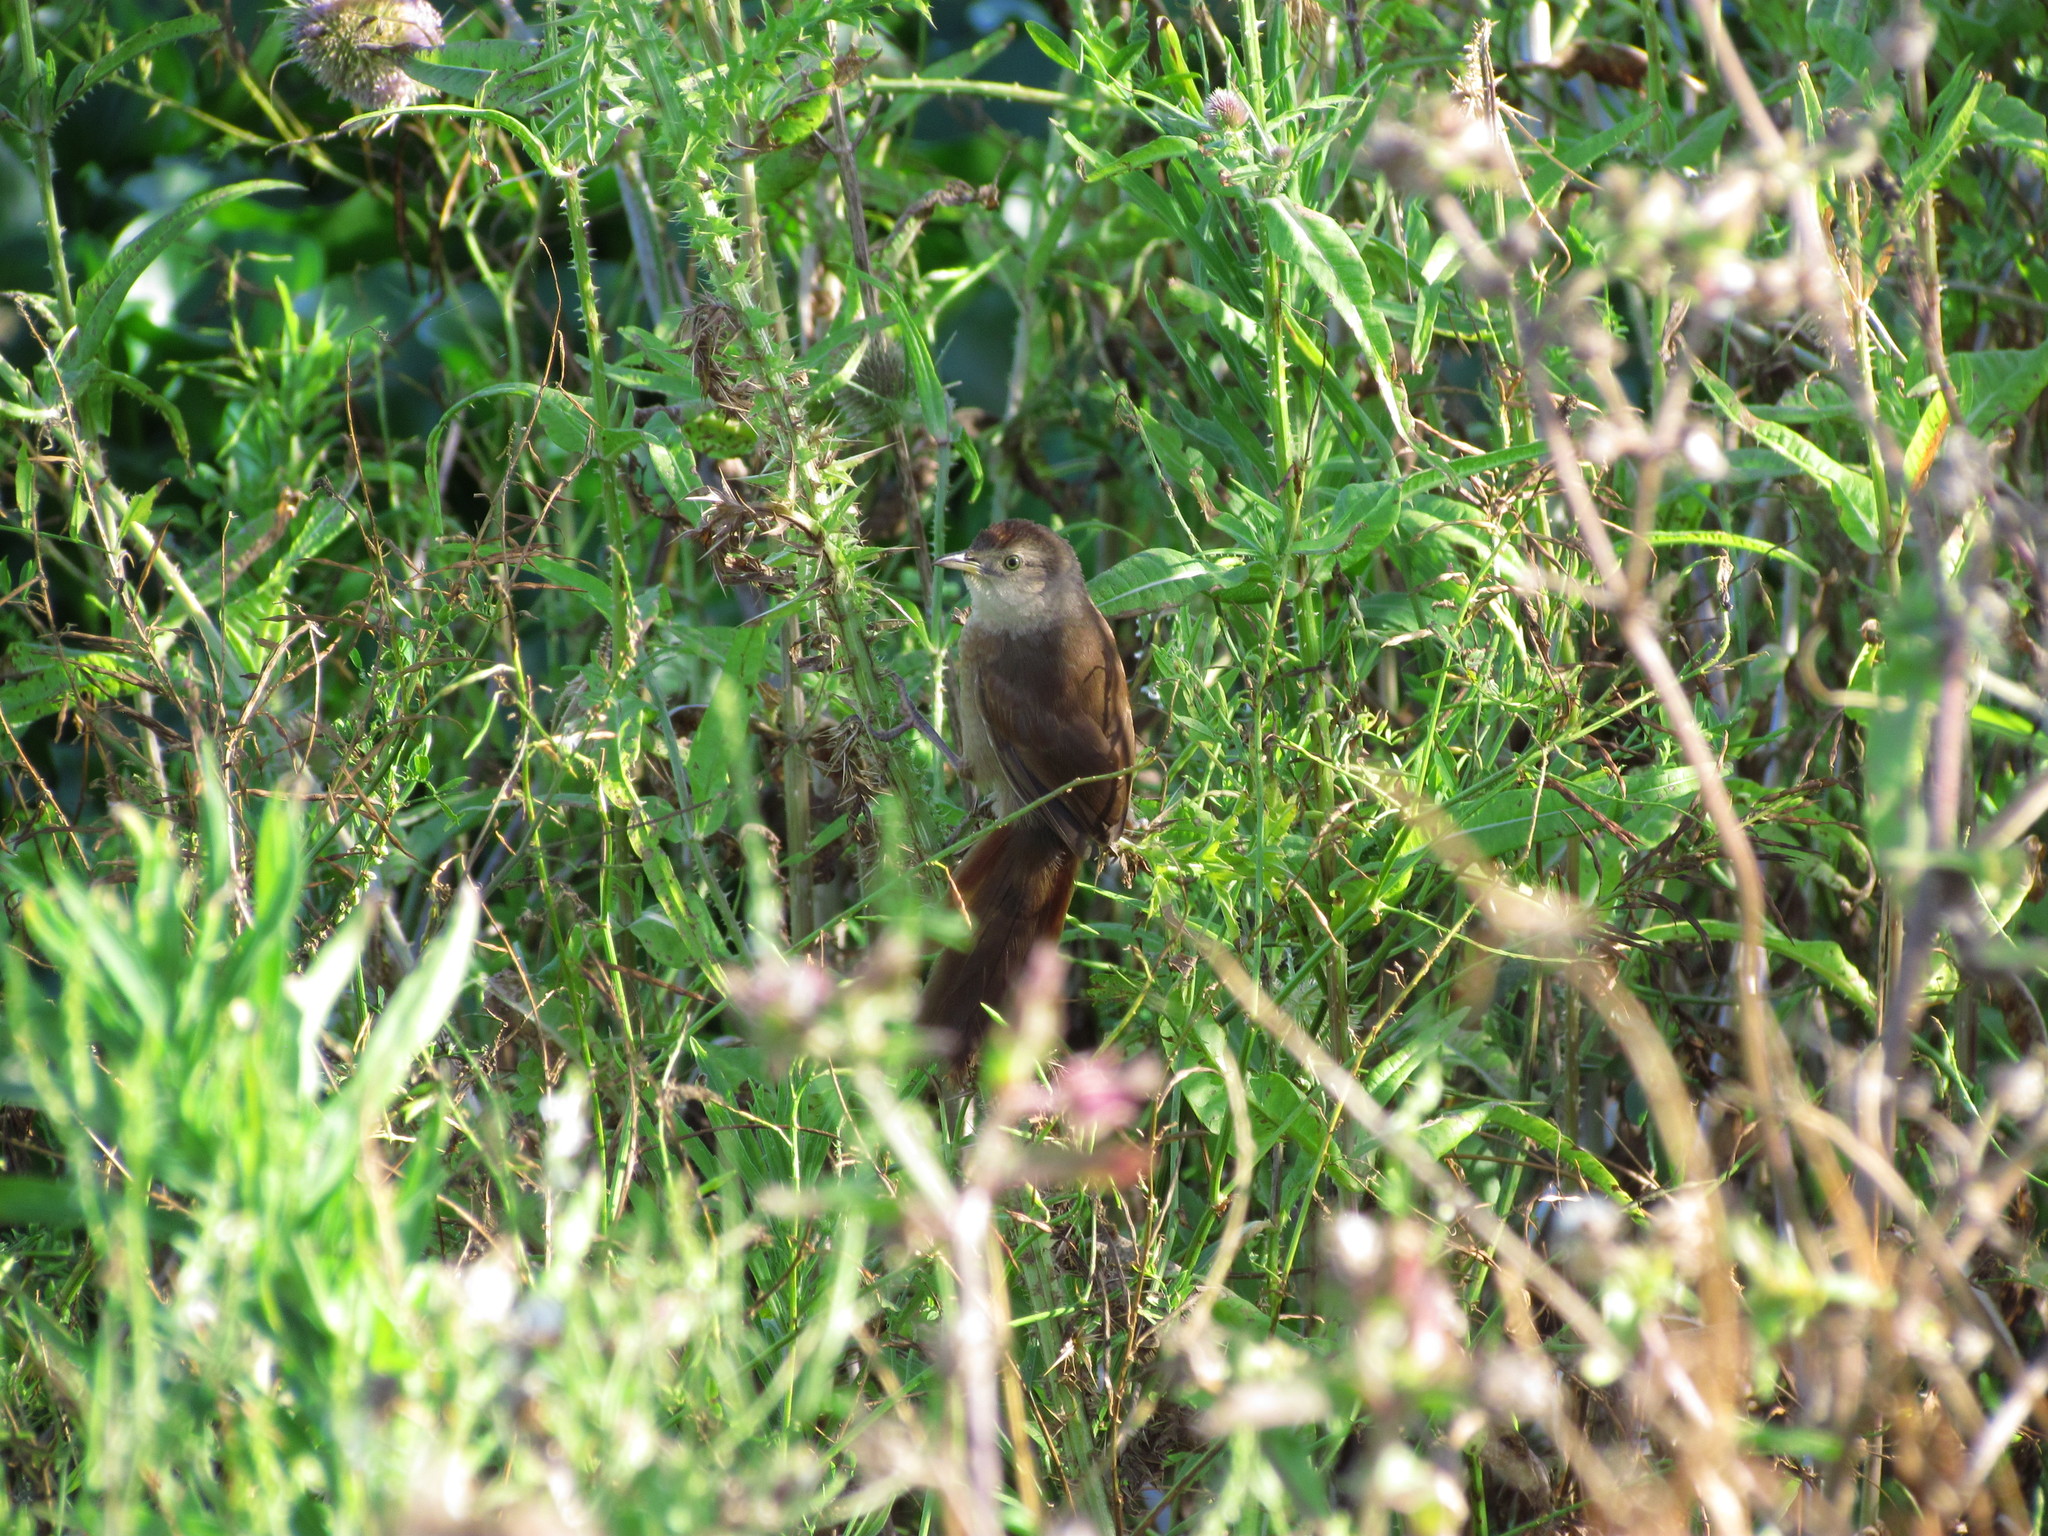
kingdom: Animalia
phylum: Chordata
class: Aves
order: Passeriformes
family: Furnariidae
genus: Phacellodomus
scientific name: Phacellodomus striaticollis
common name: Freckle-breasted thornbird
